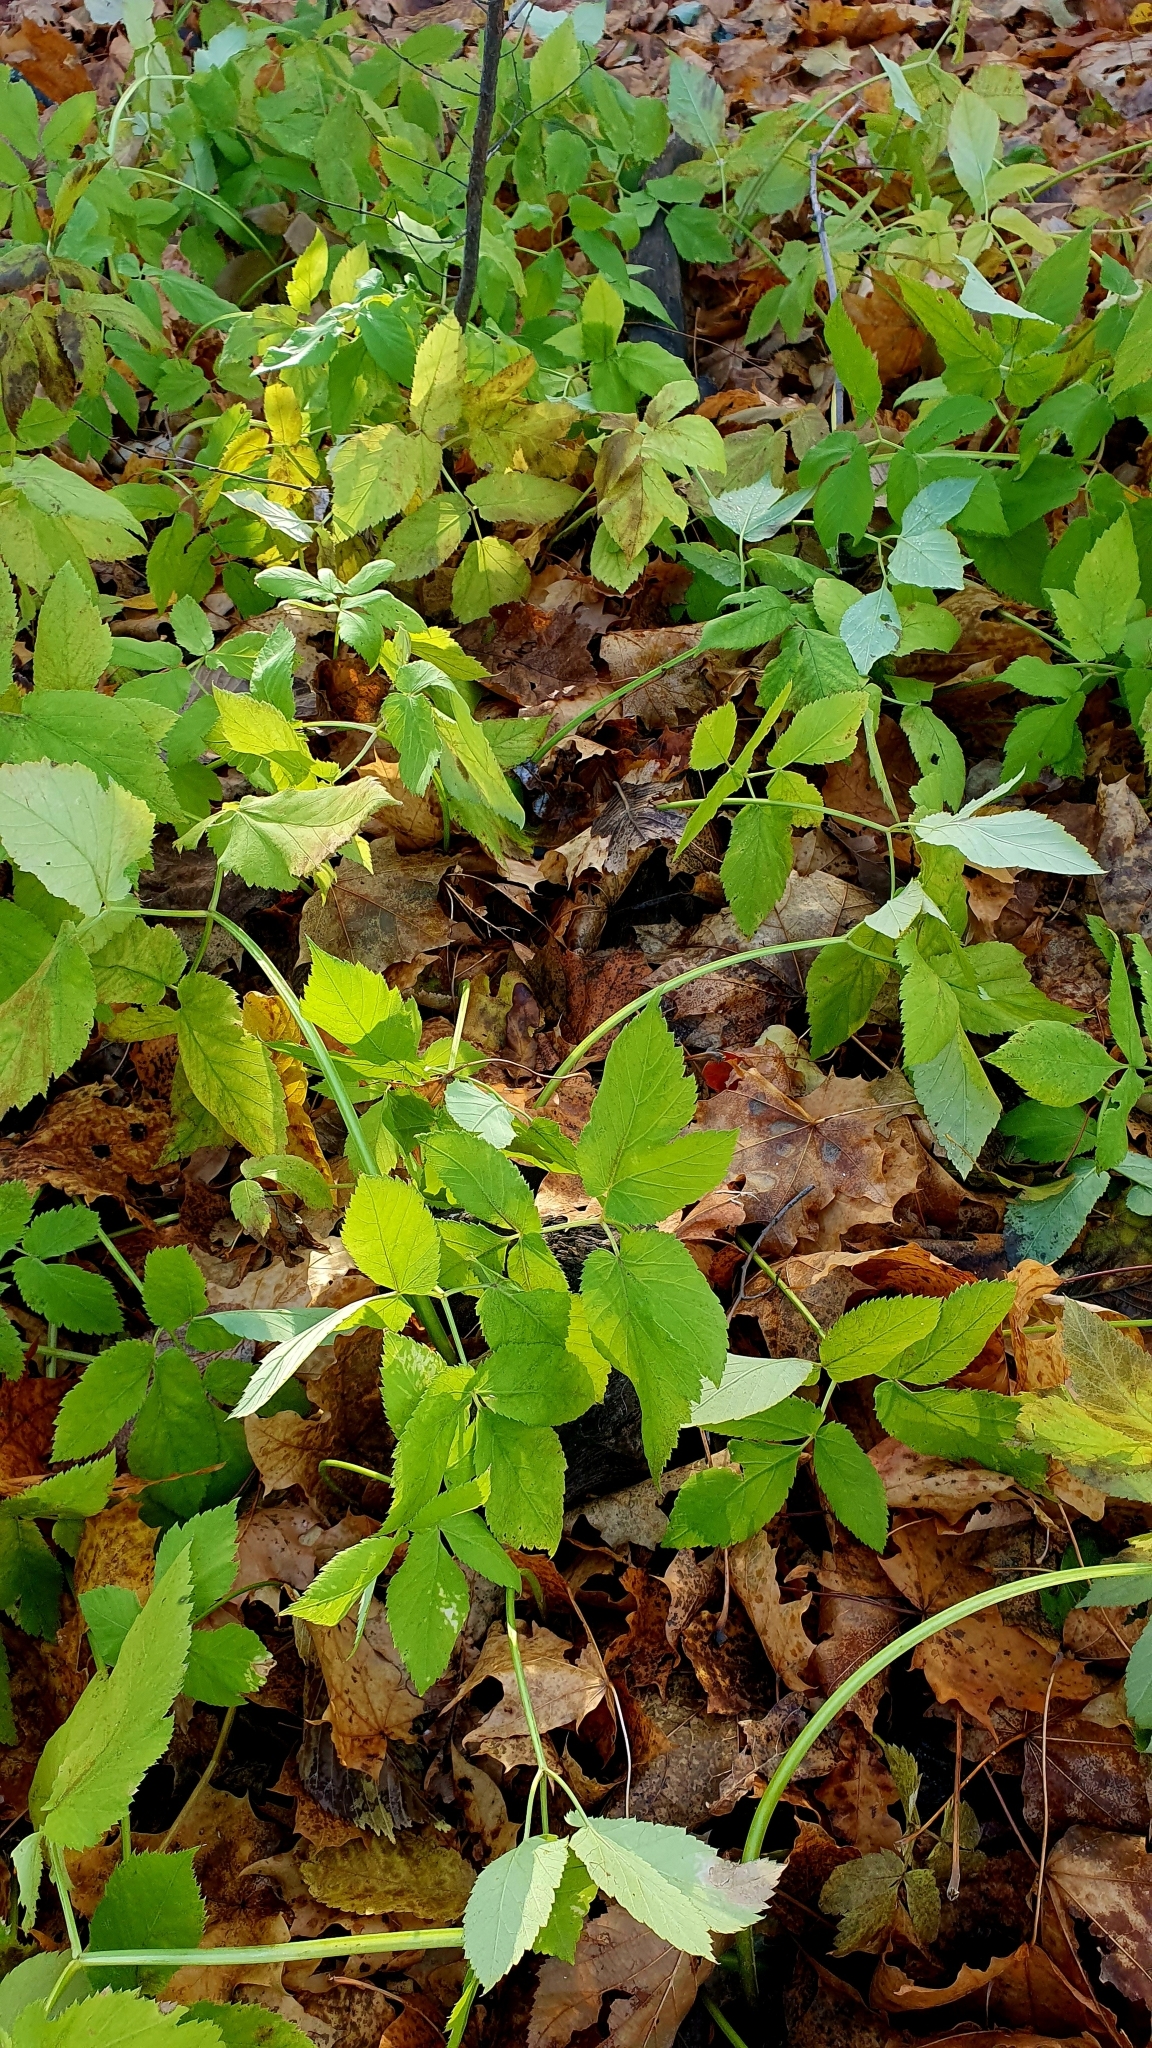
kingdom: Plantae
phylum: Tracheophyta
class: Magnoliopsida
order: Apiales
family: Apiaceae
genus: Aegopodium
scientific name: Aegopodium podagraria
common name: Ground-elder
